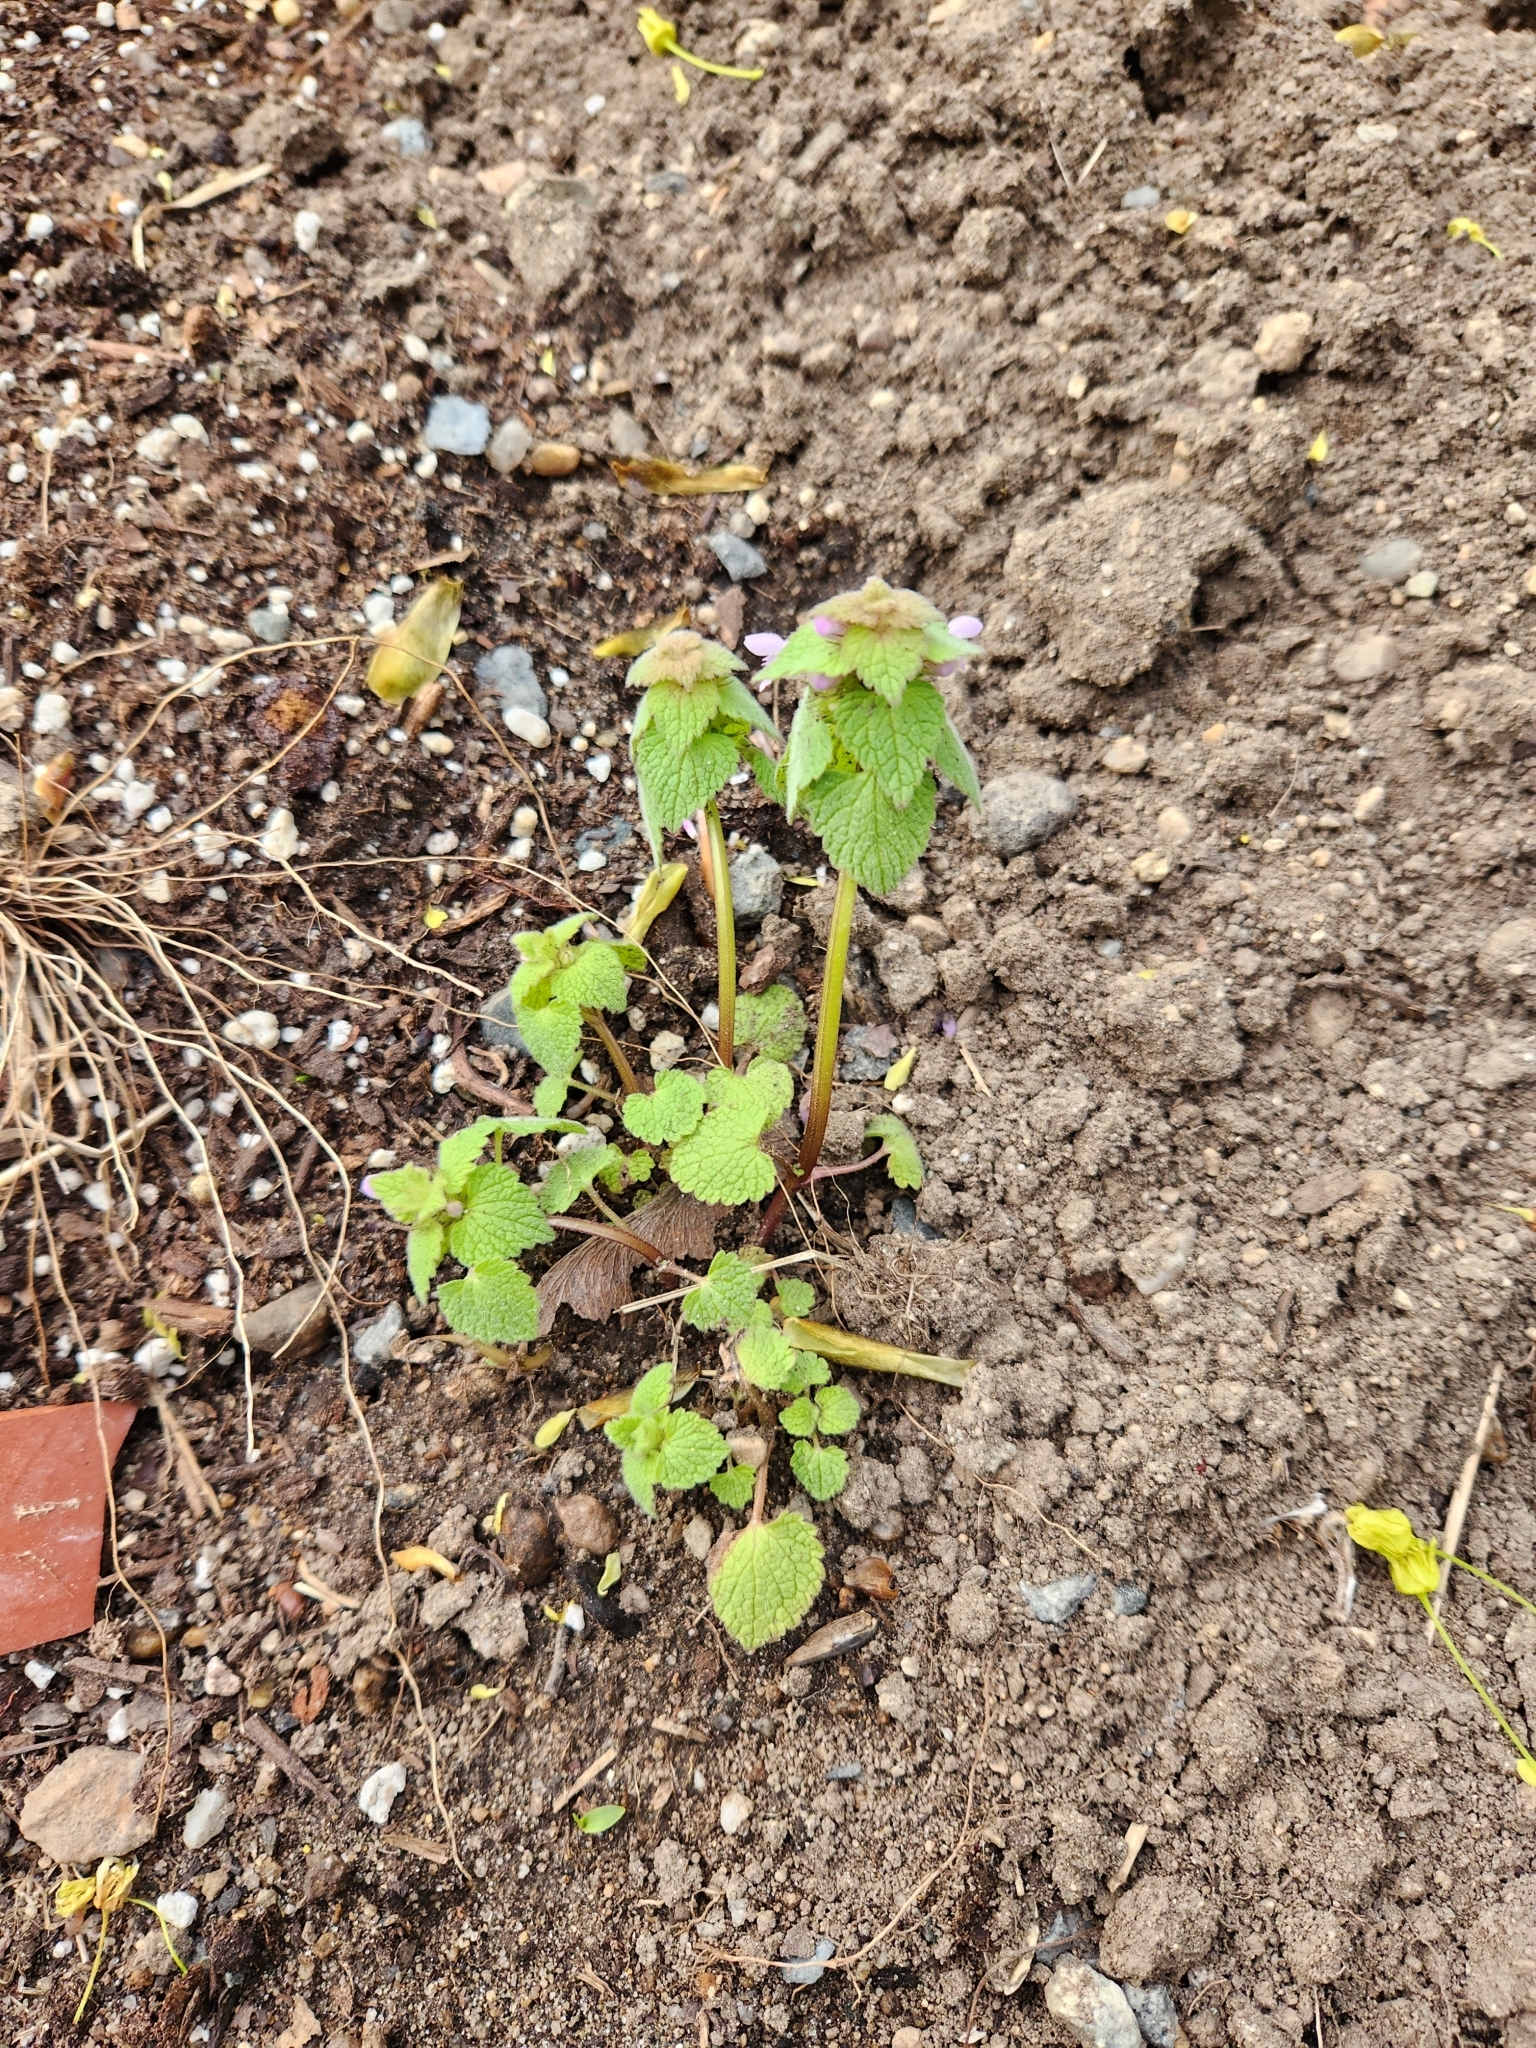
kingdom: Plantae
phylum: Tracheophyta
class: Magnoliopsida
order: Lamiales
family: Lamiaceae
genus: Lamium
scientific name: Lamium purpureum
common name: Red dead-nettle
